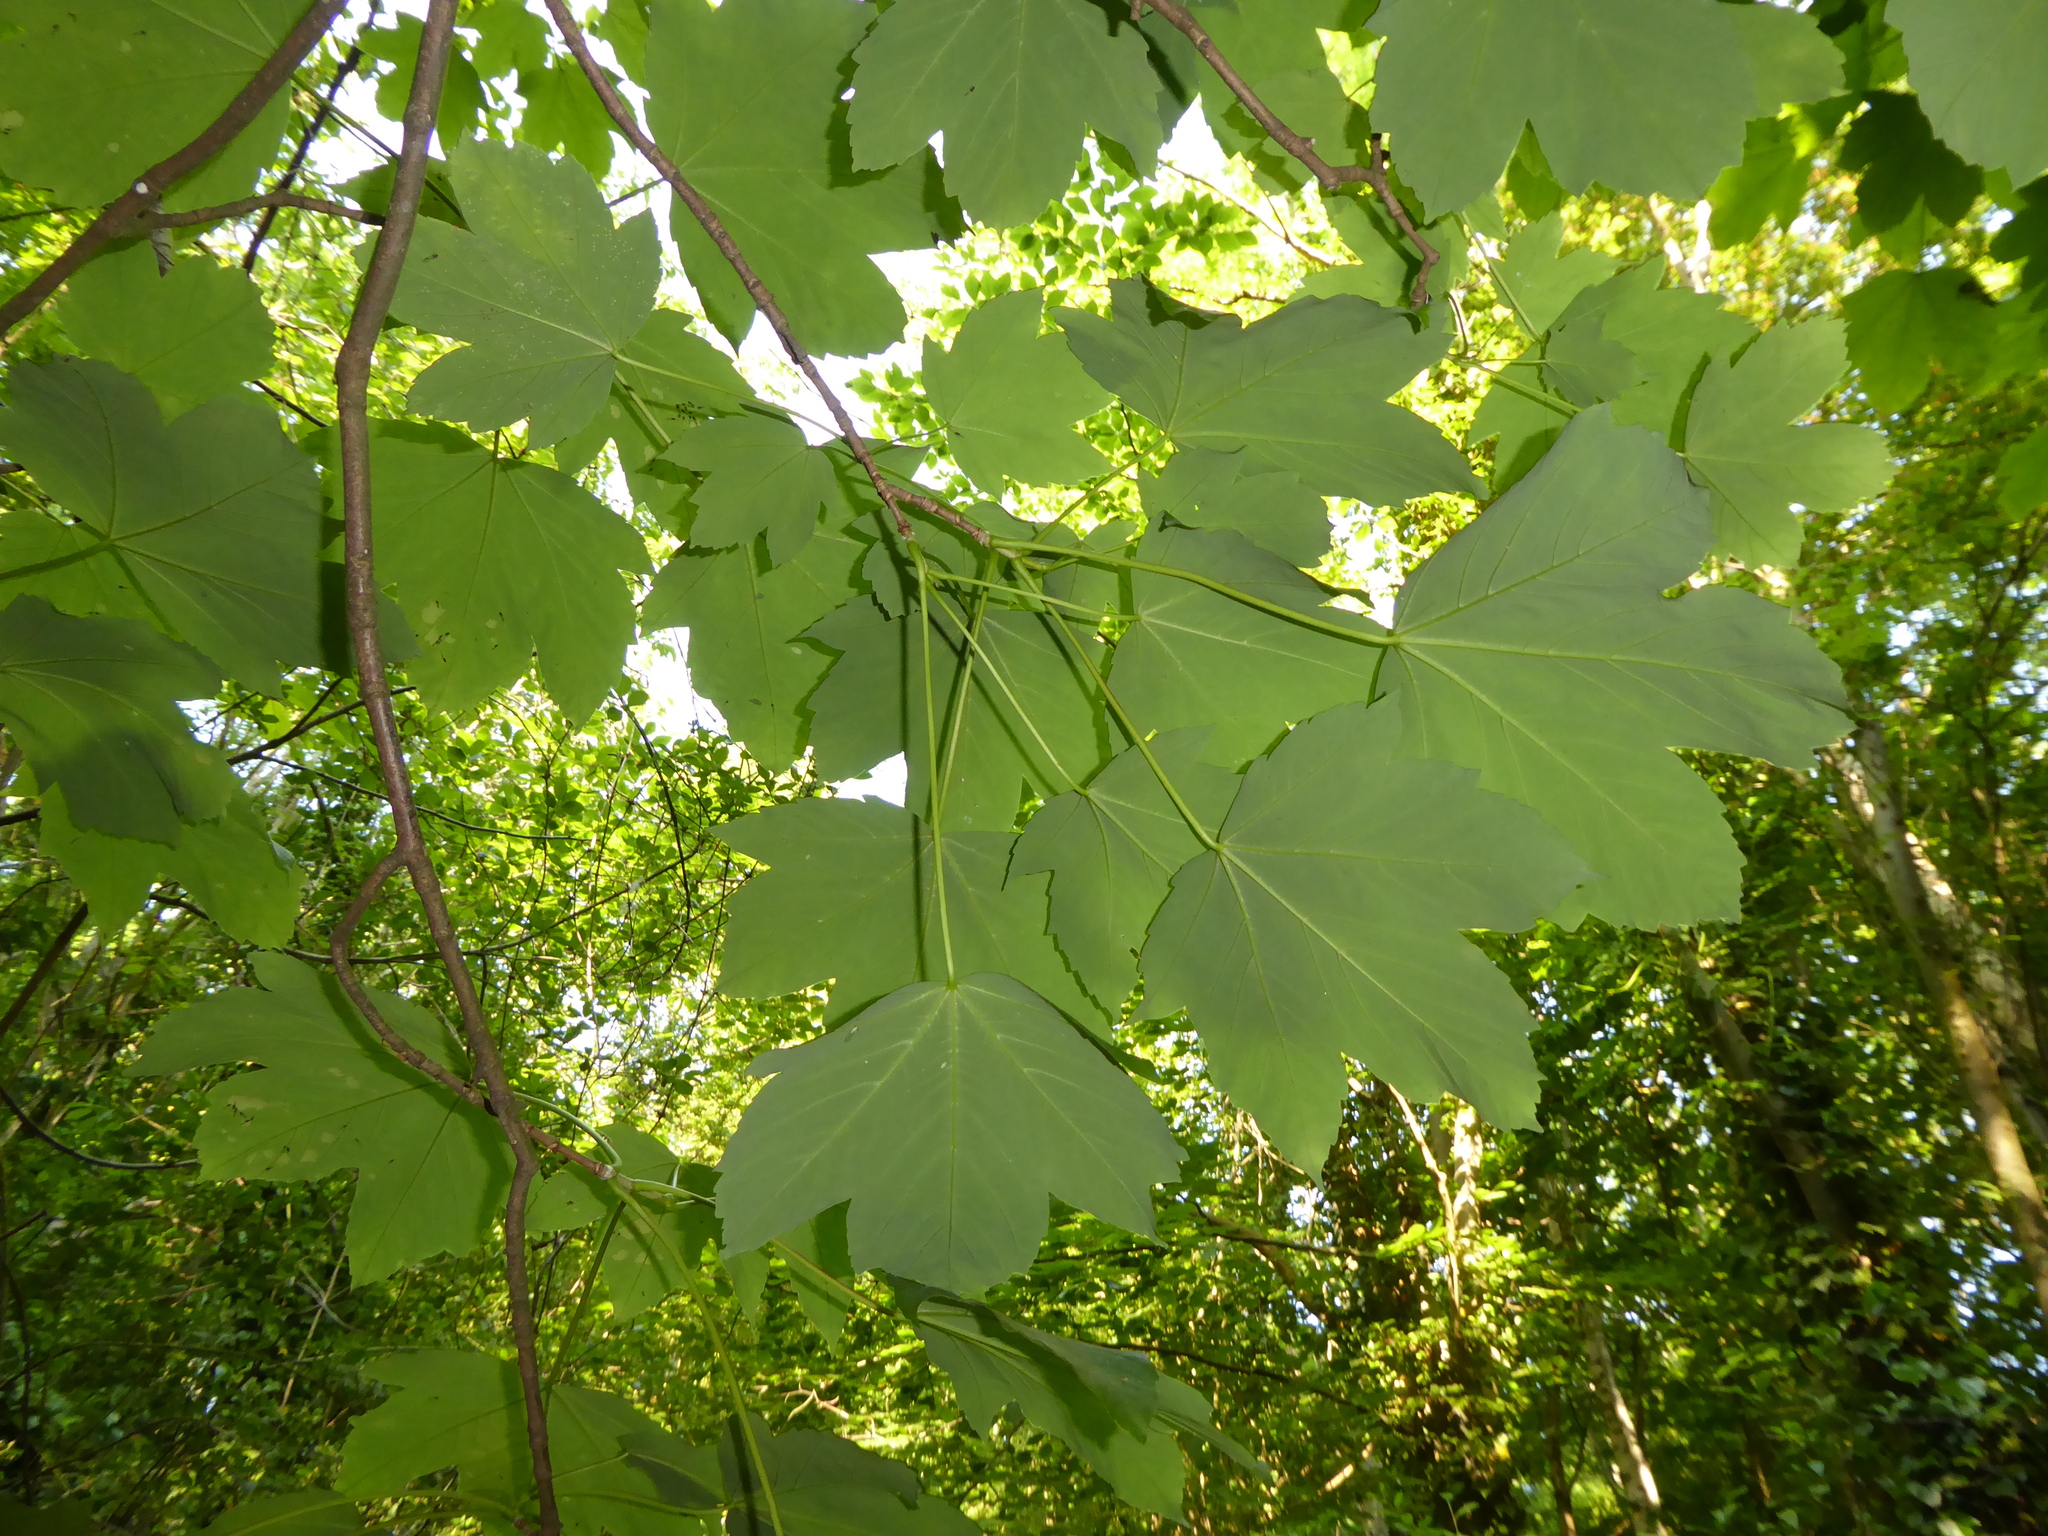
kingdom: Plantae
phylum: Tracheophyta
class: Magnoliopsida
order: Sapindales
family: Sapindaceae
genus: Acer
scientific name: Acer pseudoplatanus
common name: Sycamore
